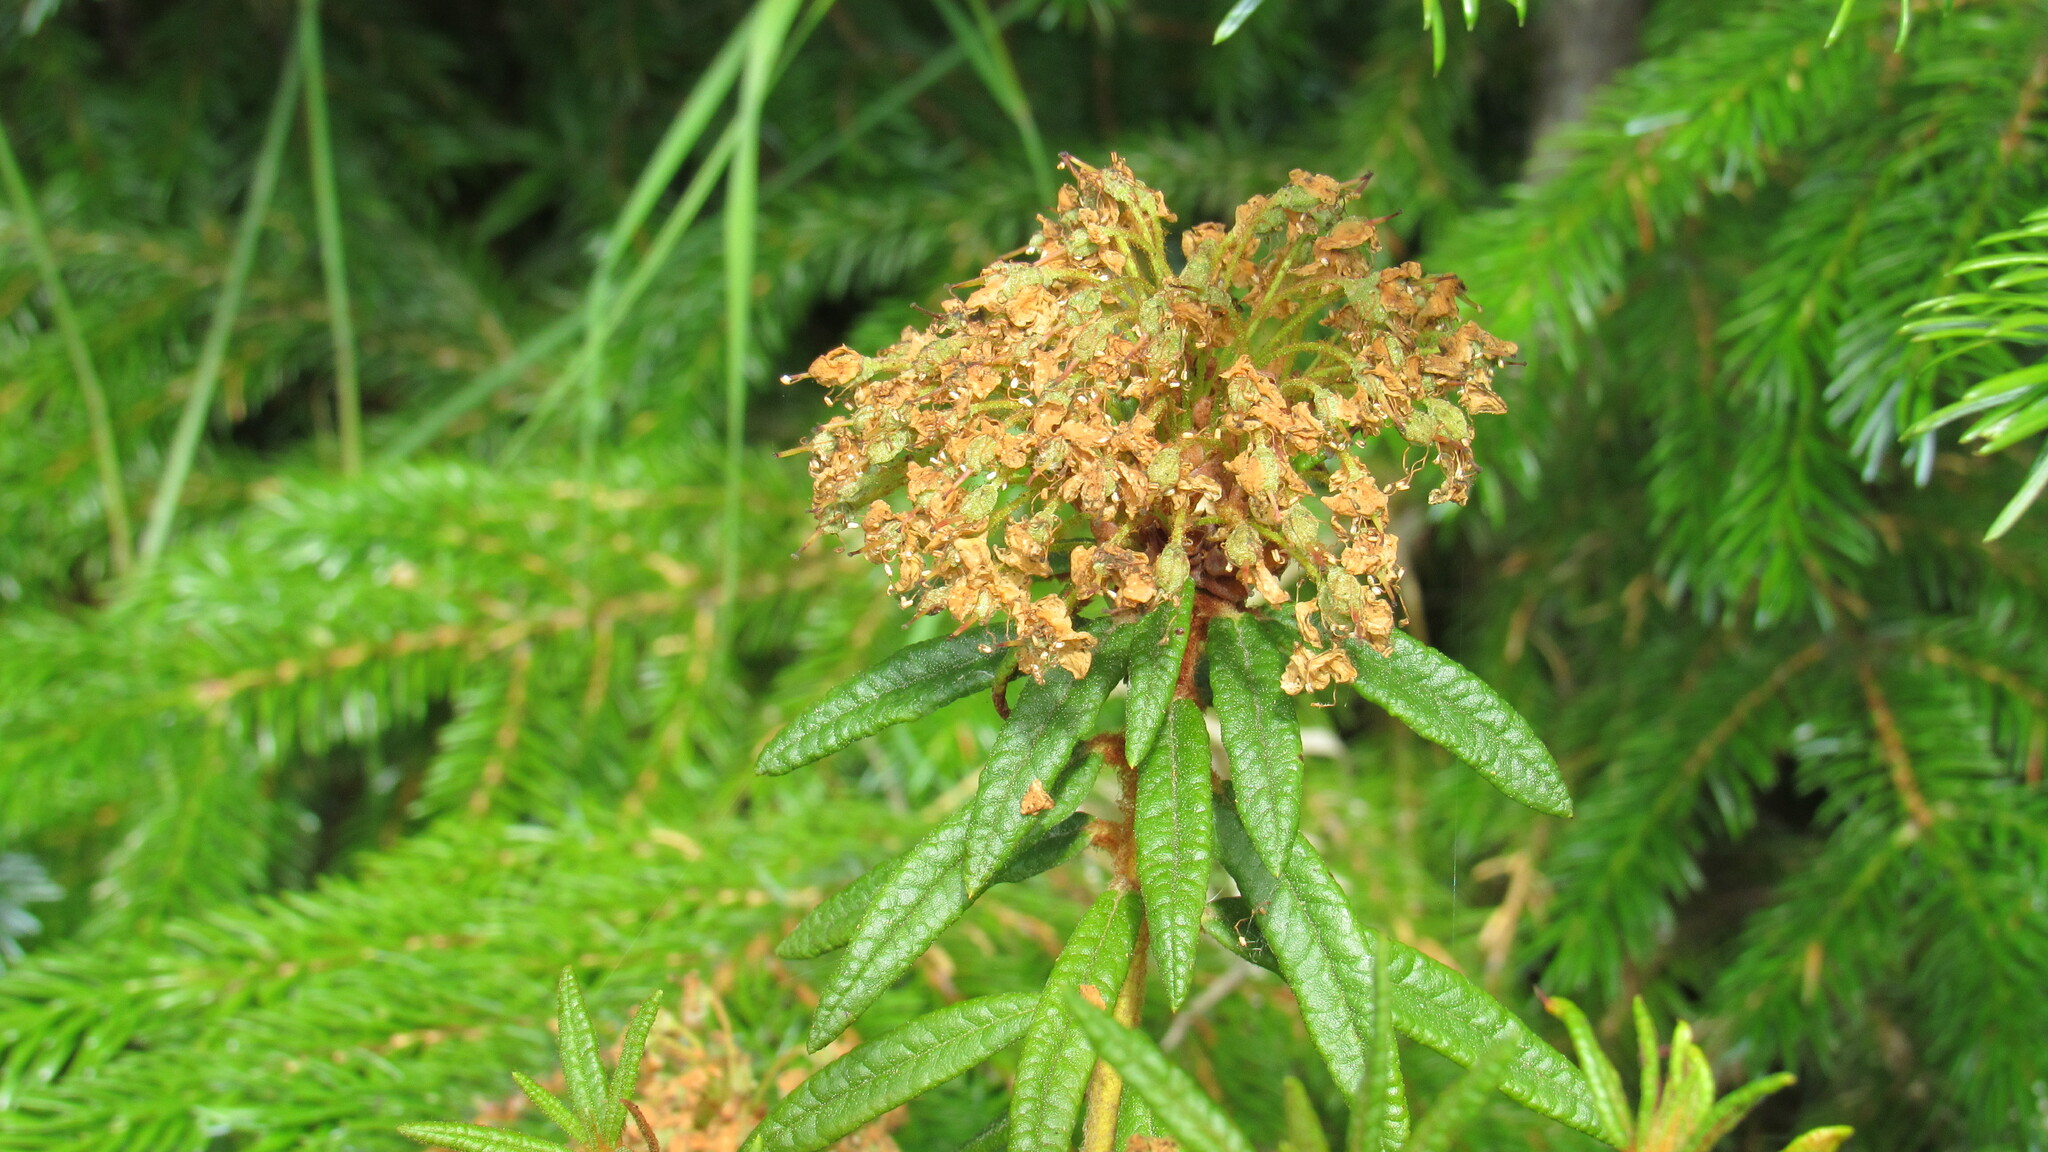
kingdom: Plantae
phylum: Tracheophyta
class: Magnoliopsida
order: Ericales
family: Ericaceae
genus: Rhododendron
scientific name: Rhododendron tomentosum
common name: Marsh labrador tea
